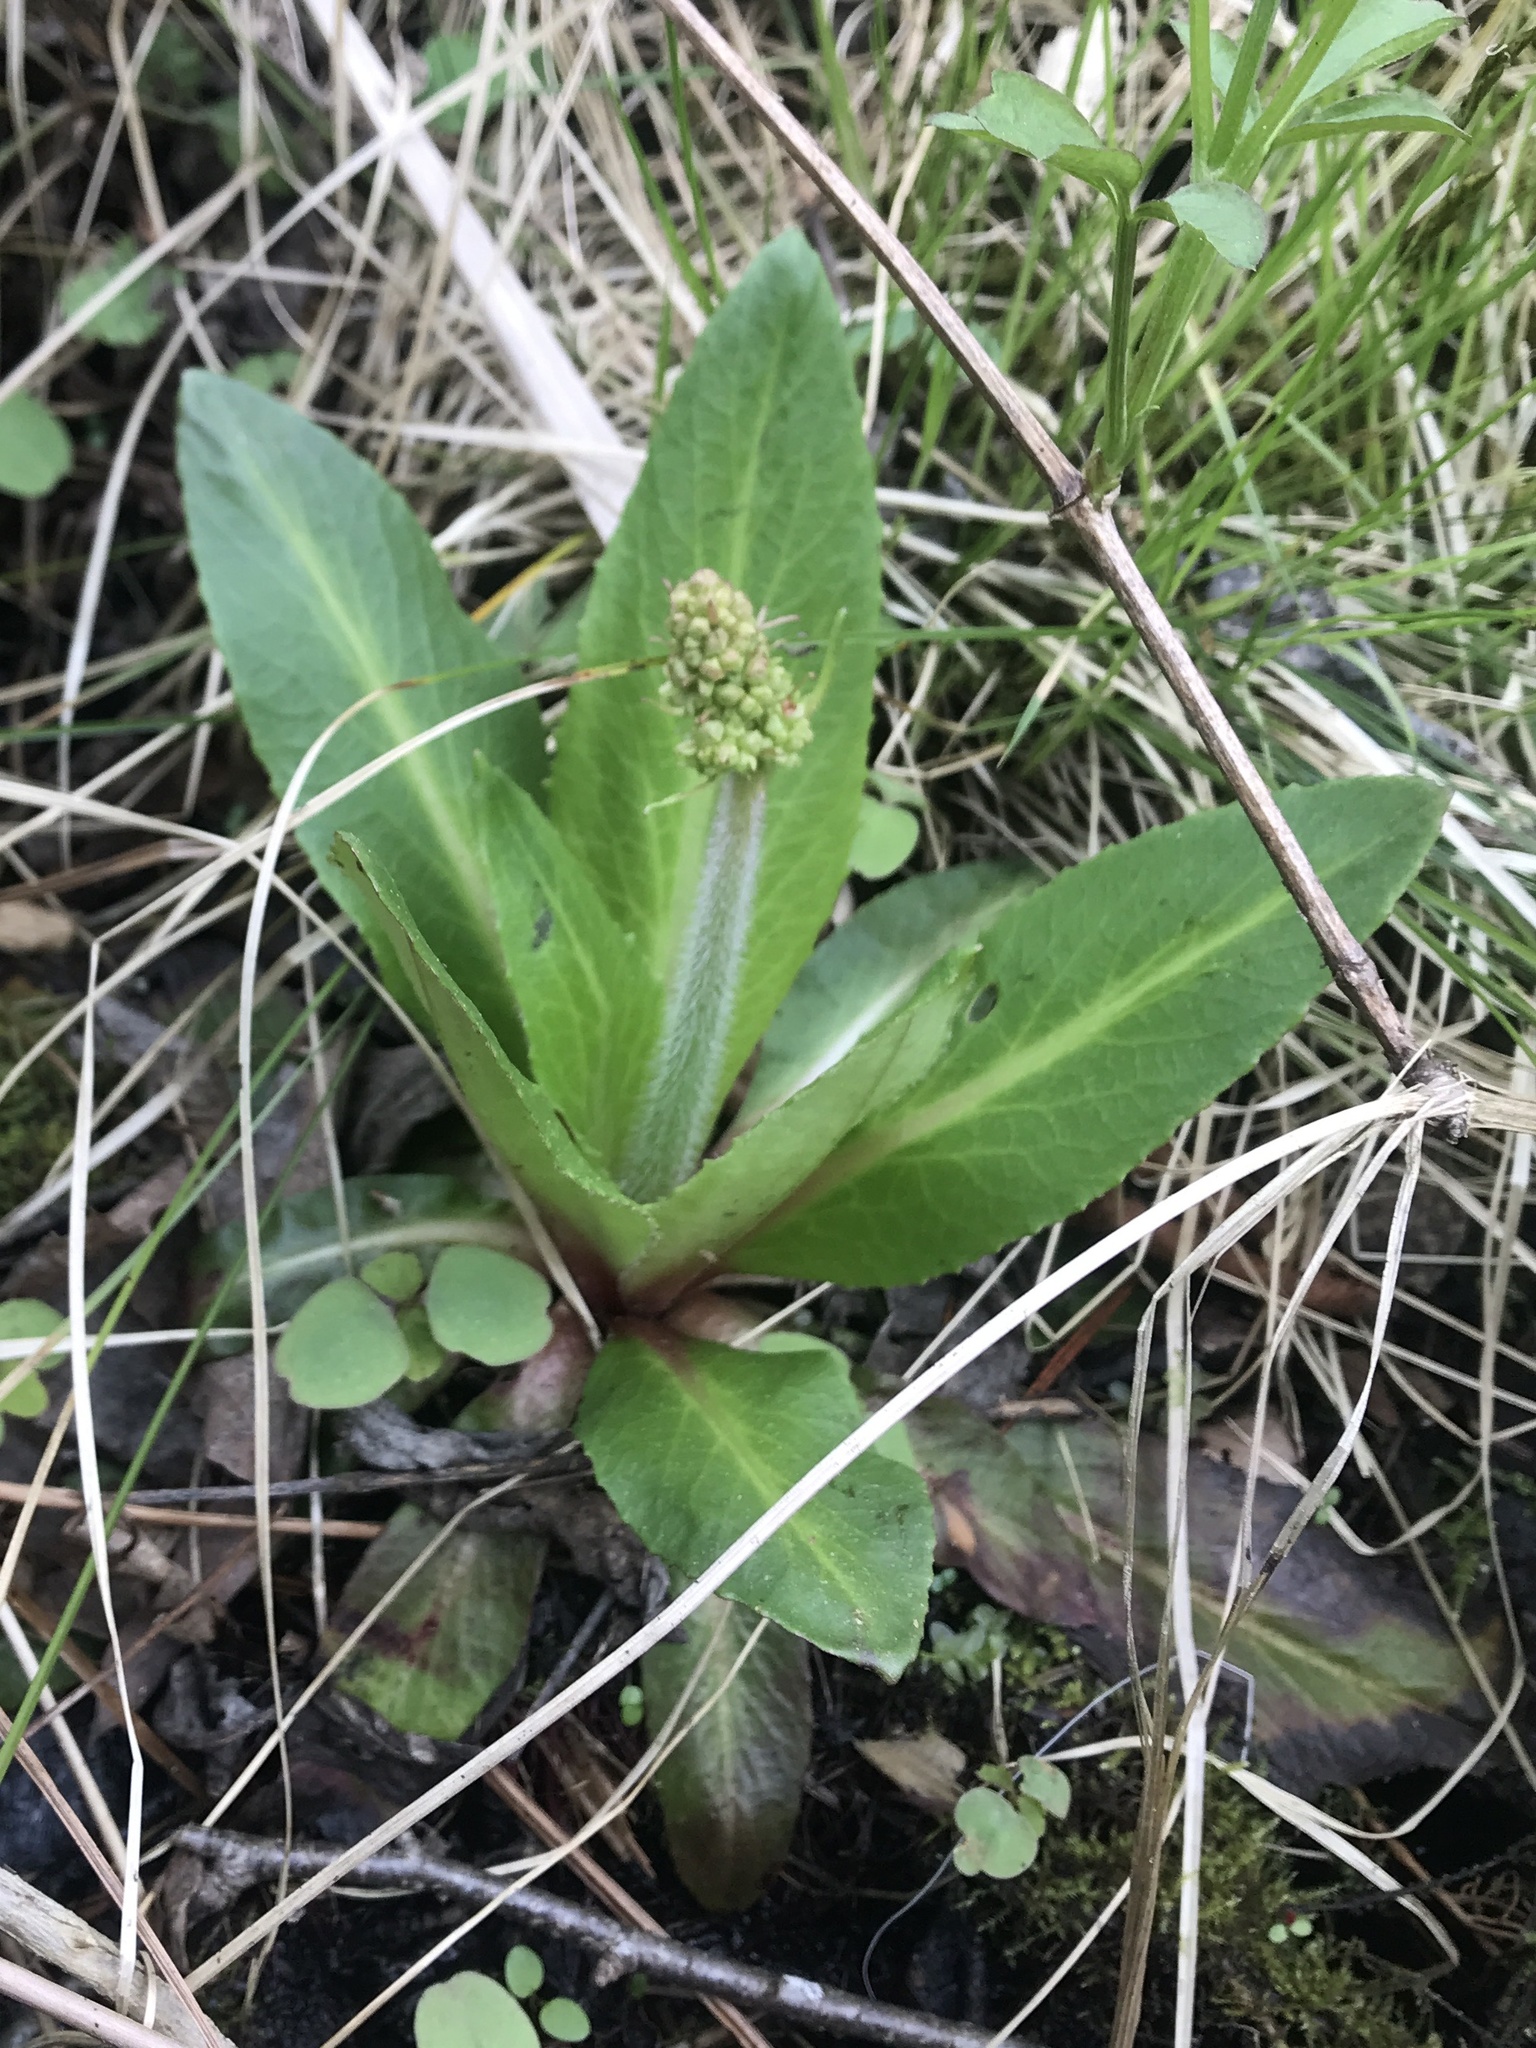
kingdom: Plantae
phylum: Tracheophyta
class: Magnoliopsida
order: Saxifragales
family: Saxifragaceae
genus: Micranthes
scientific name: Micranthes pensylvanica
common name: Marsh saxifrage
